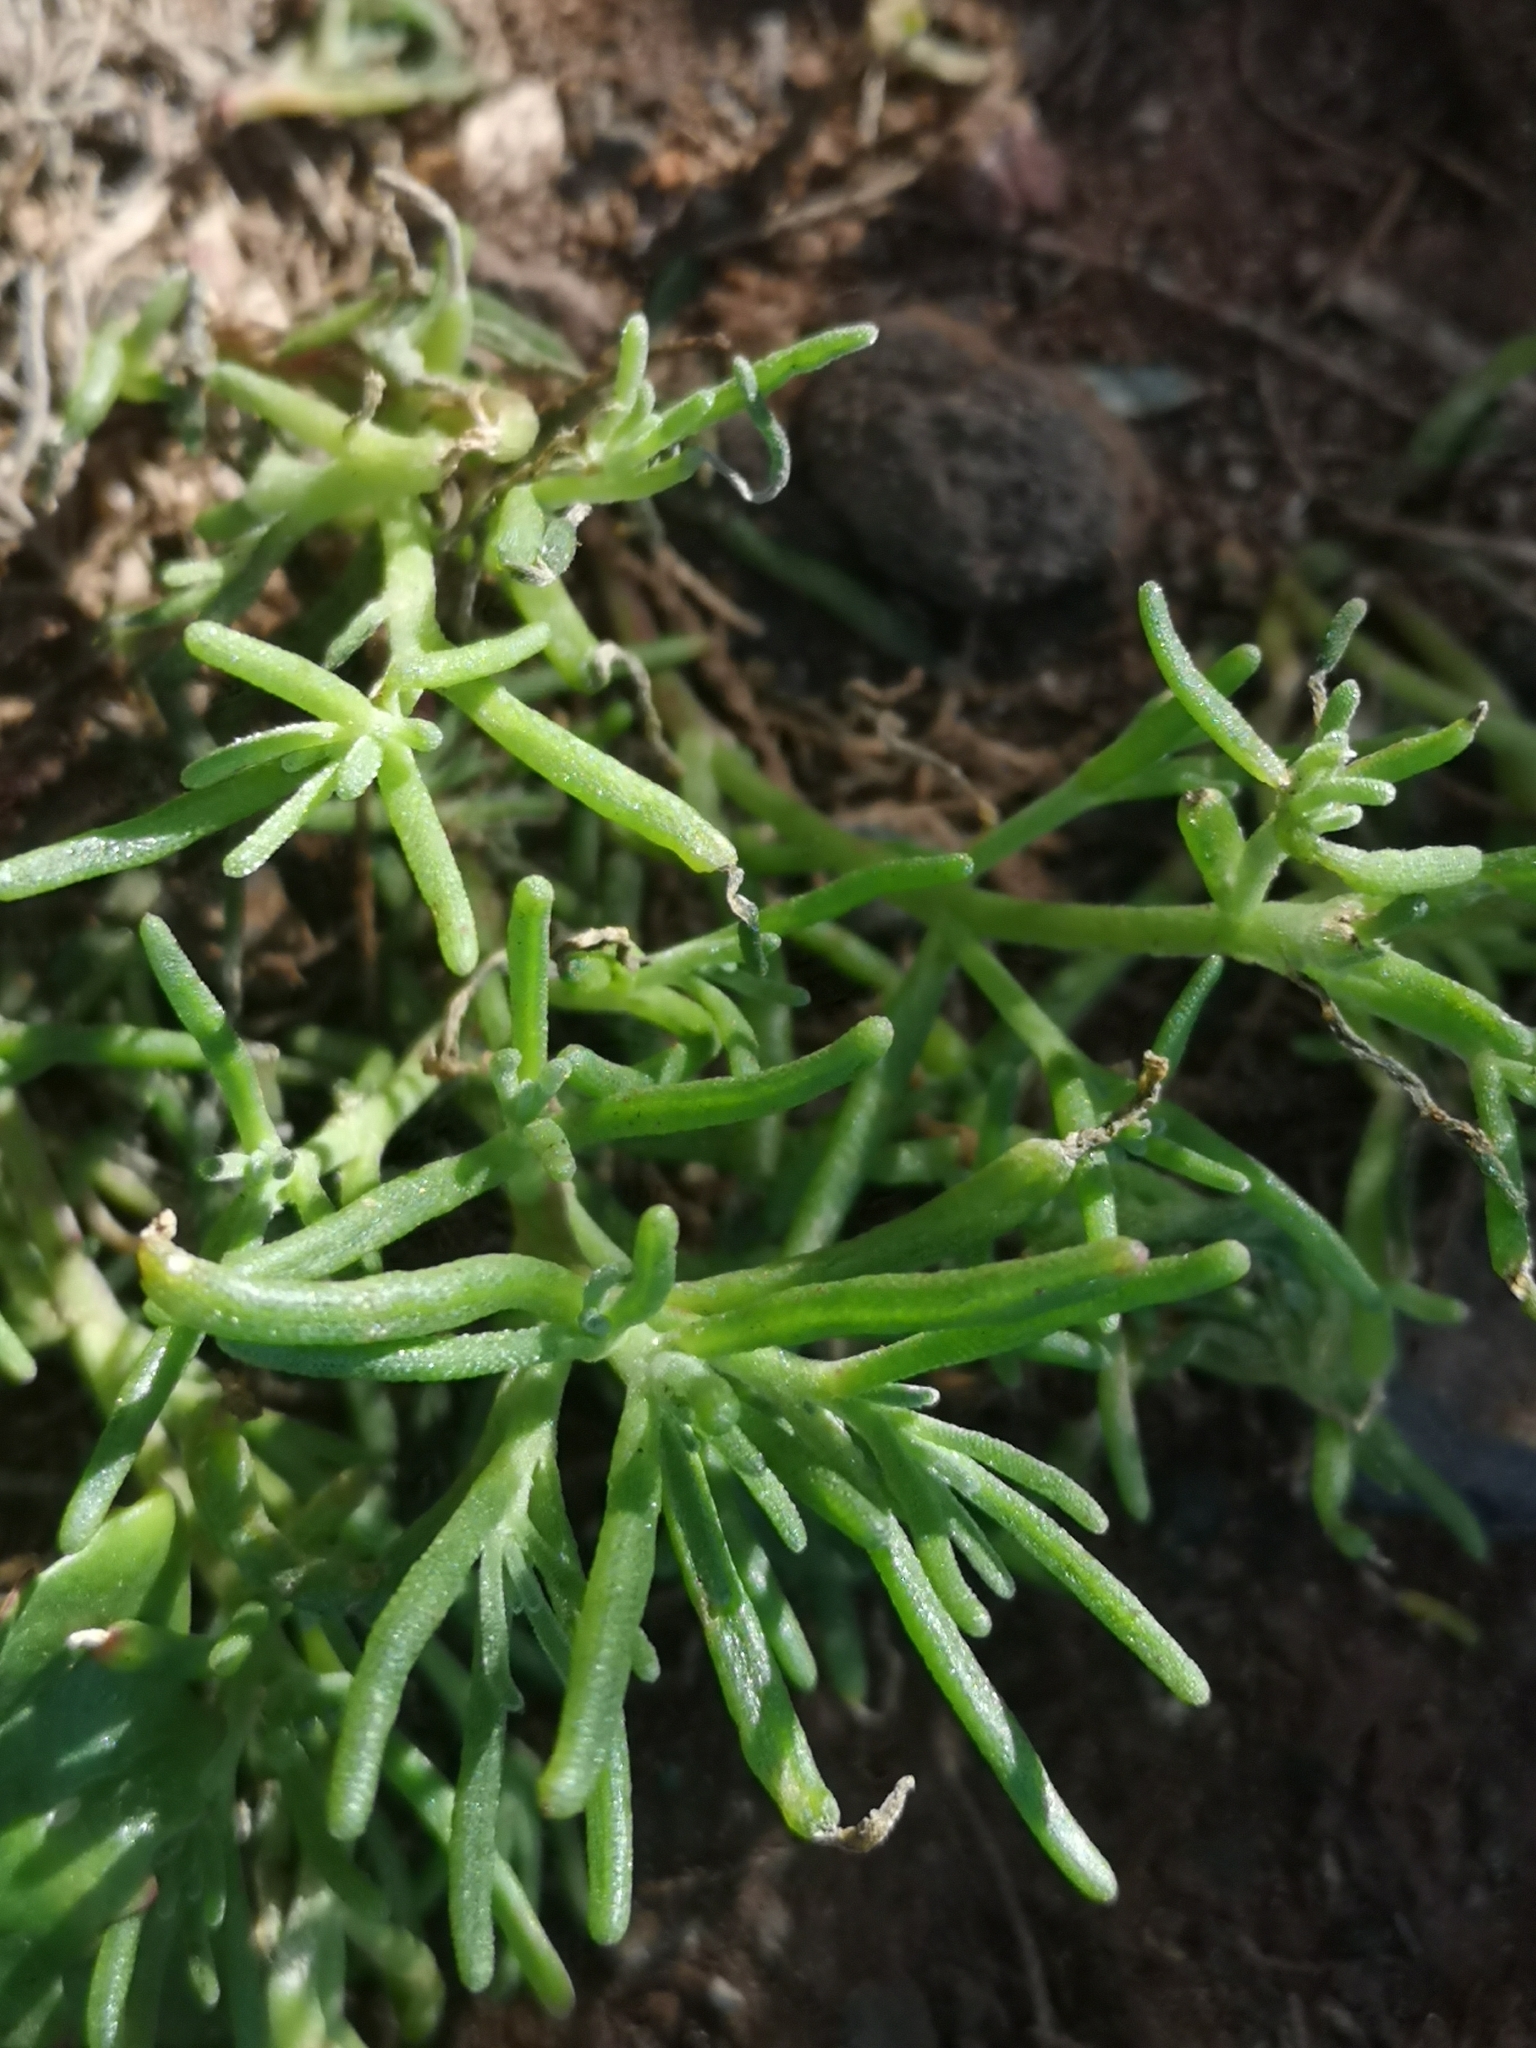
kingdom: Plantae
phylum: Tracheophyta
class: Magnoliopsida
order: Caryophyllales
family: Aizoaceae
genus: Mesembryanthemum
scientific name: Mesembryanthemum nodiflorum
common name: Slenderleaf iceplant
